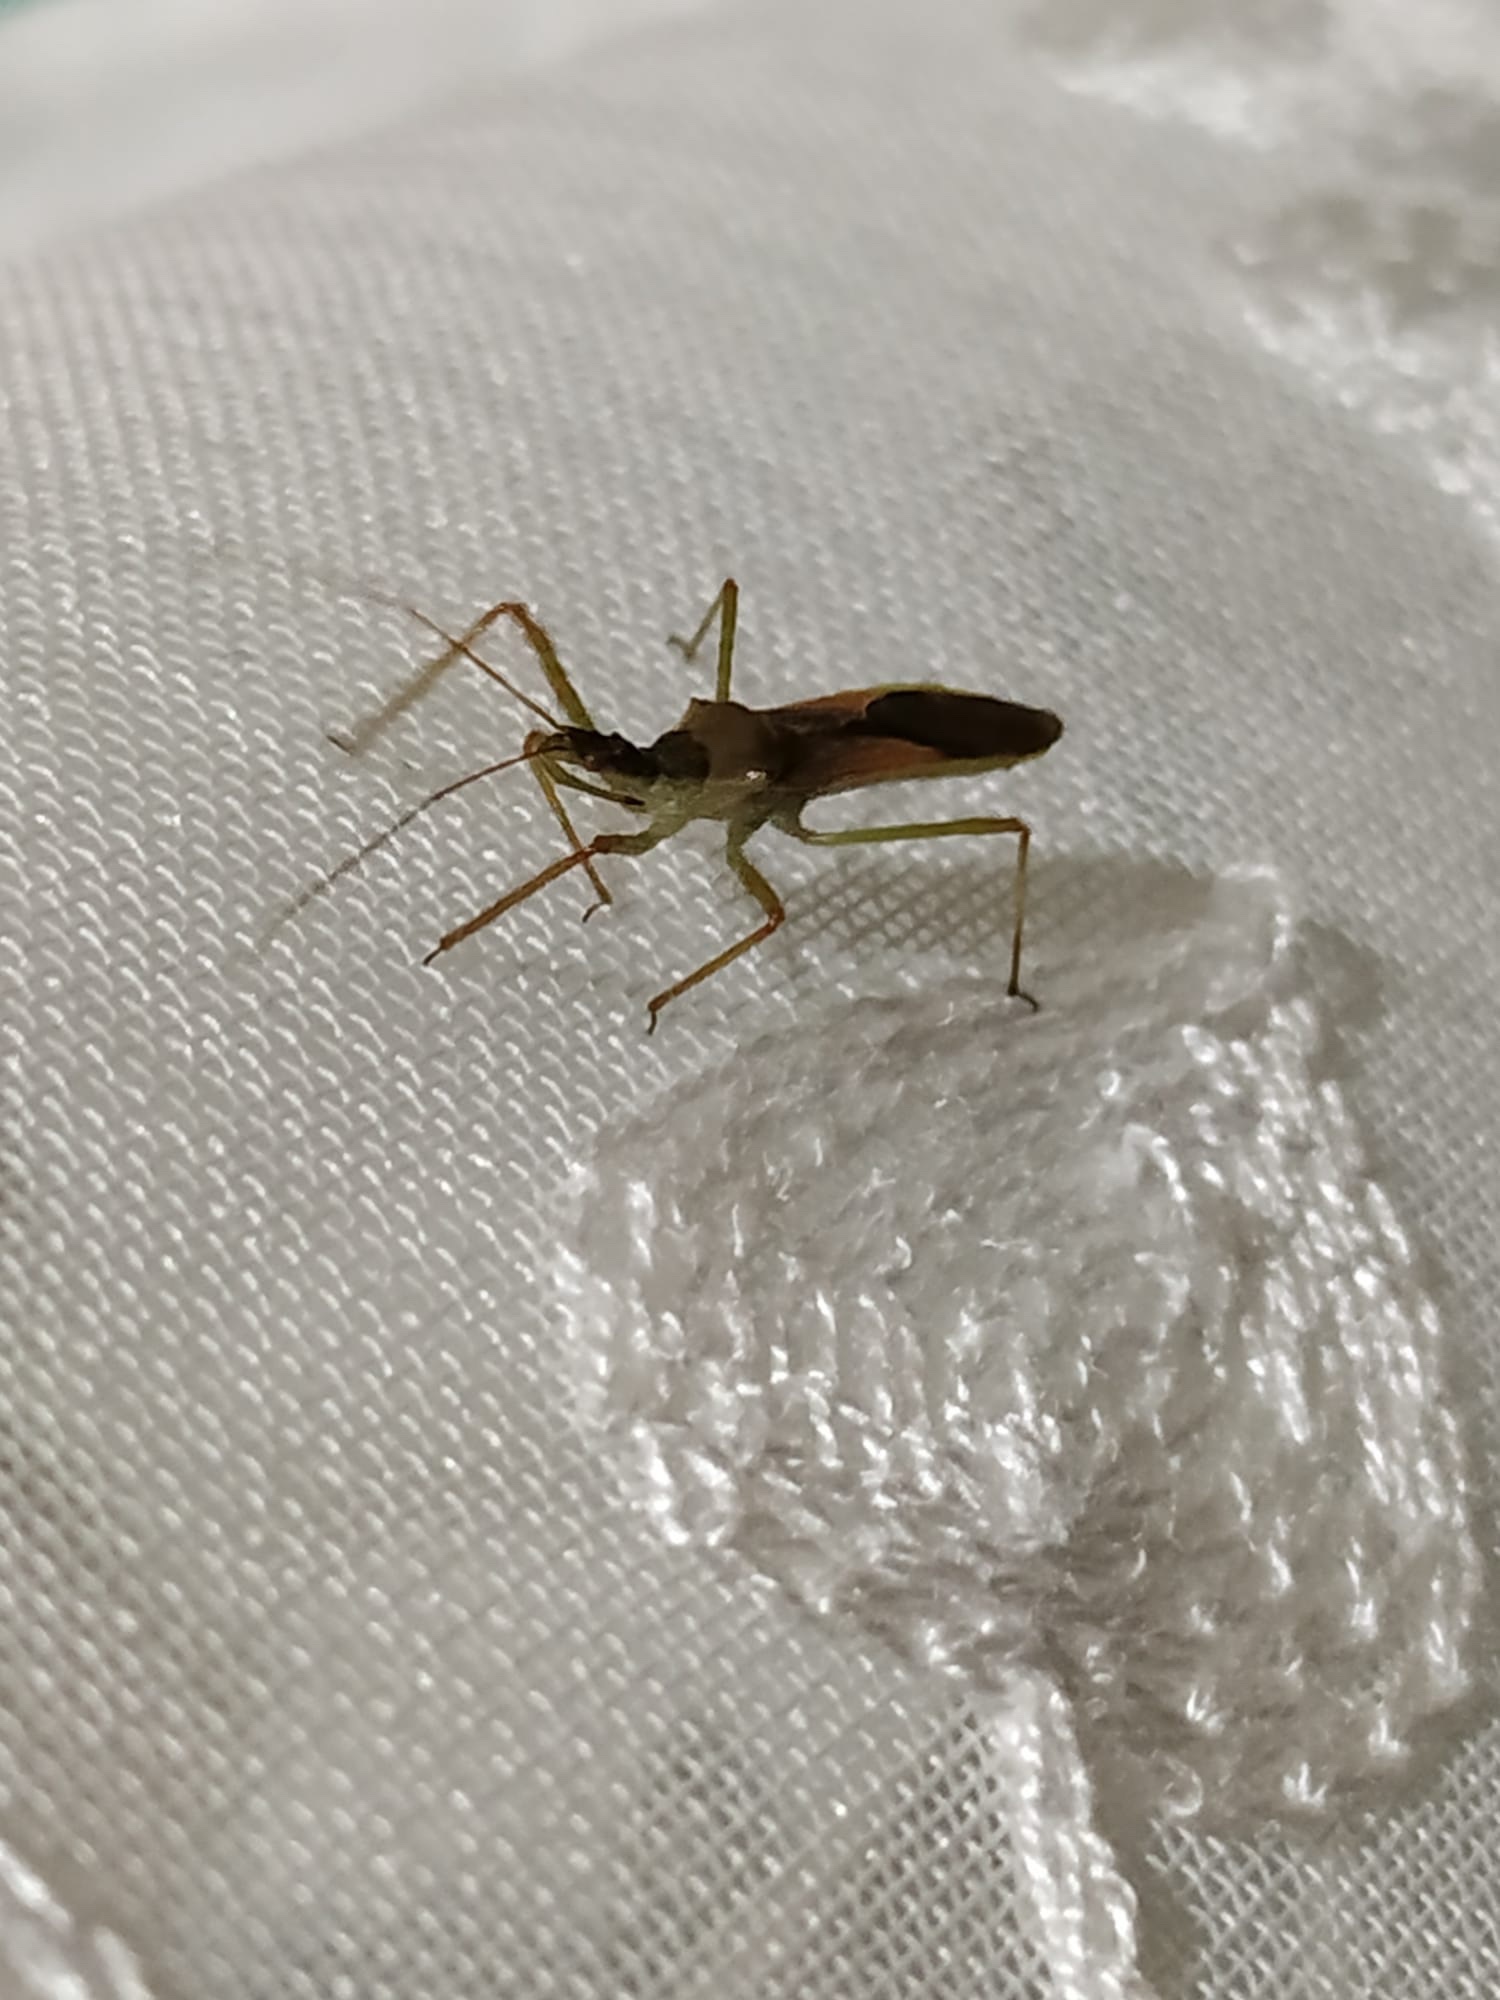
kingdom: Animalia
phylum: Arthropoda
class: Insecta
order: Hemiptera
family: Reduviidae
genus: Zelus
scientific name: Zelus renardii
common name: Assassin bug
